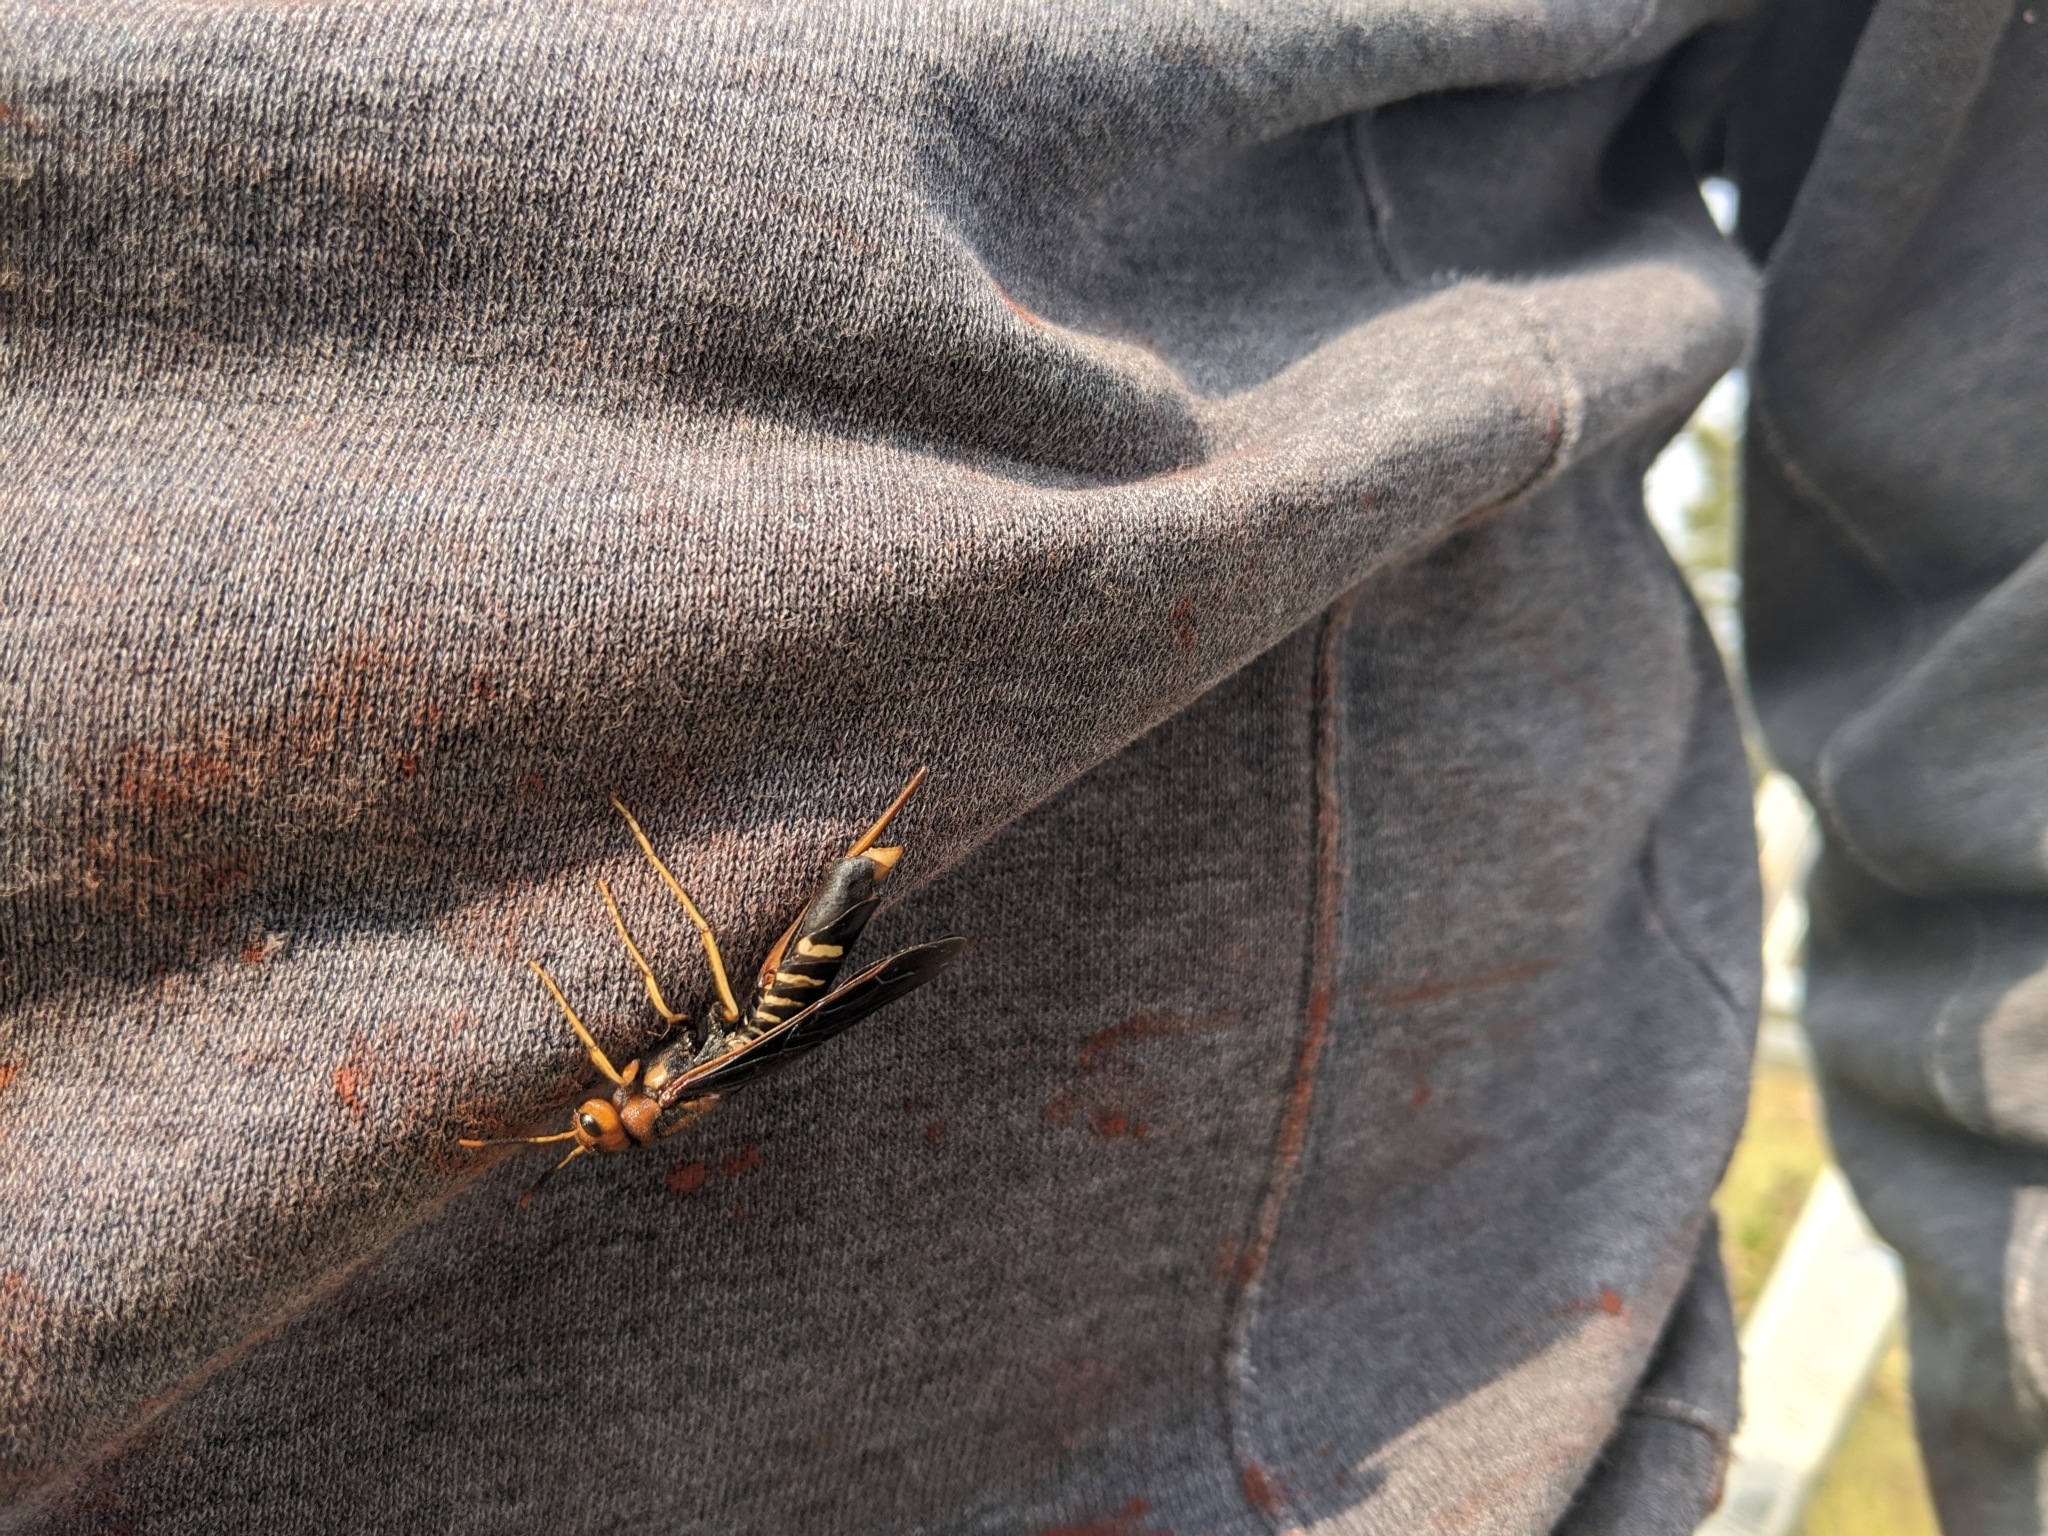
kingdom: Animalia
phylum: Arthropoda
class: Insecta
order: Hymenoptera
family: Siricidae
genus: Tremex
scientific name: Tremex columba
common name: Wasp
